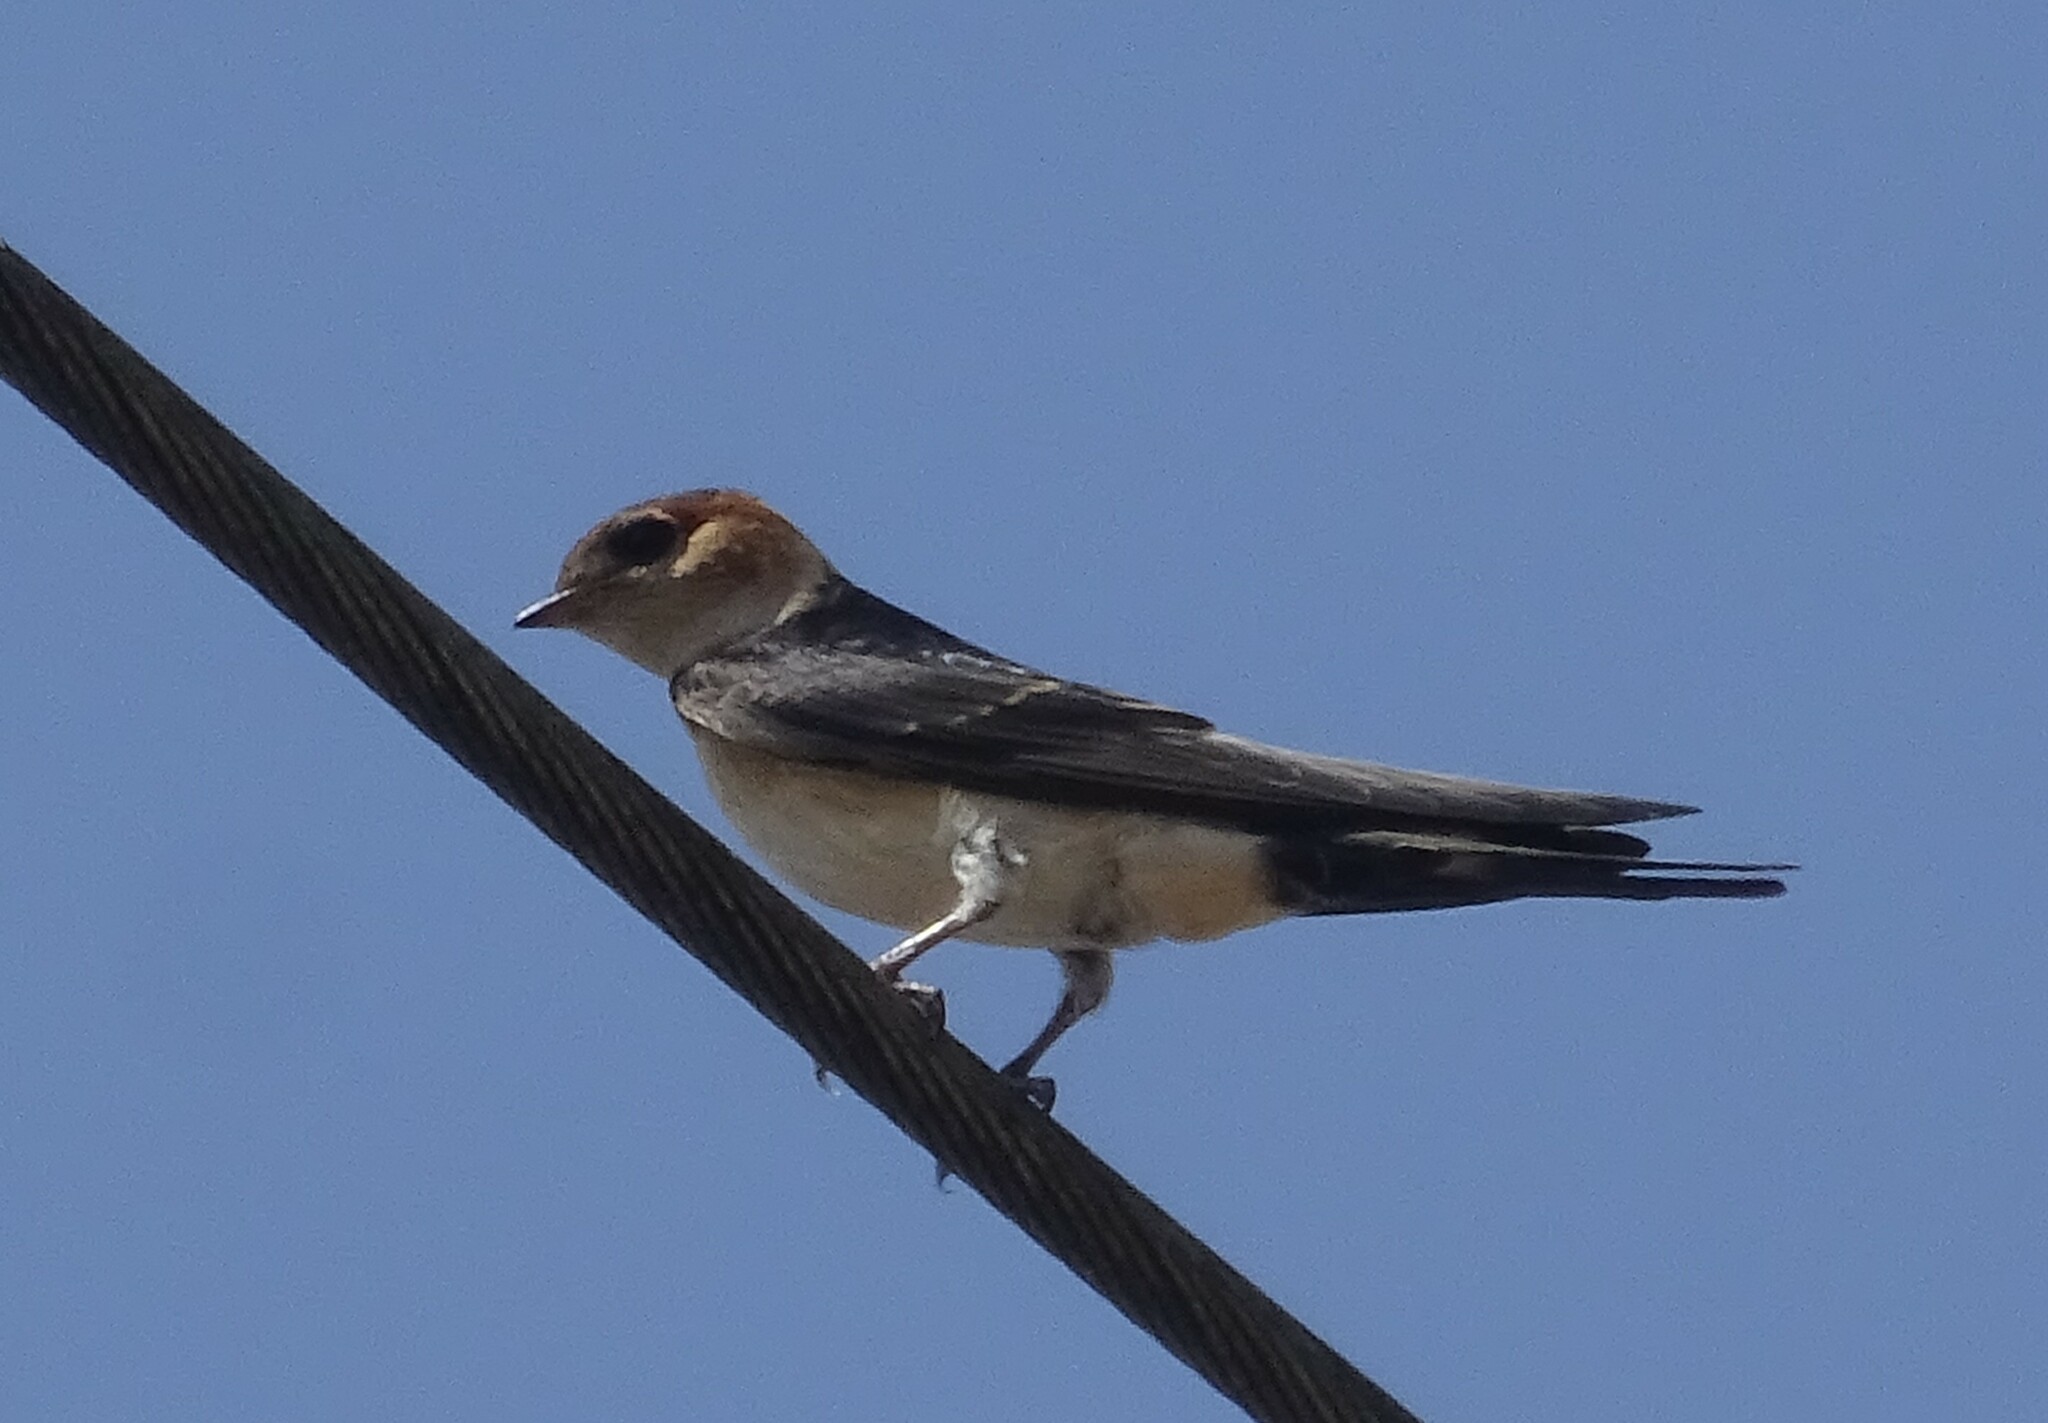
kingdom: Animalia
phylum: Chordata
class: Aves
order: Passeriformes
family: Hirundinidae
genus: Cecropis
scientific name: Cecropis daurica
